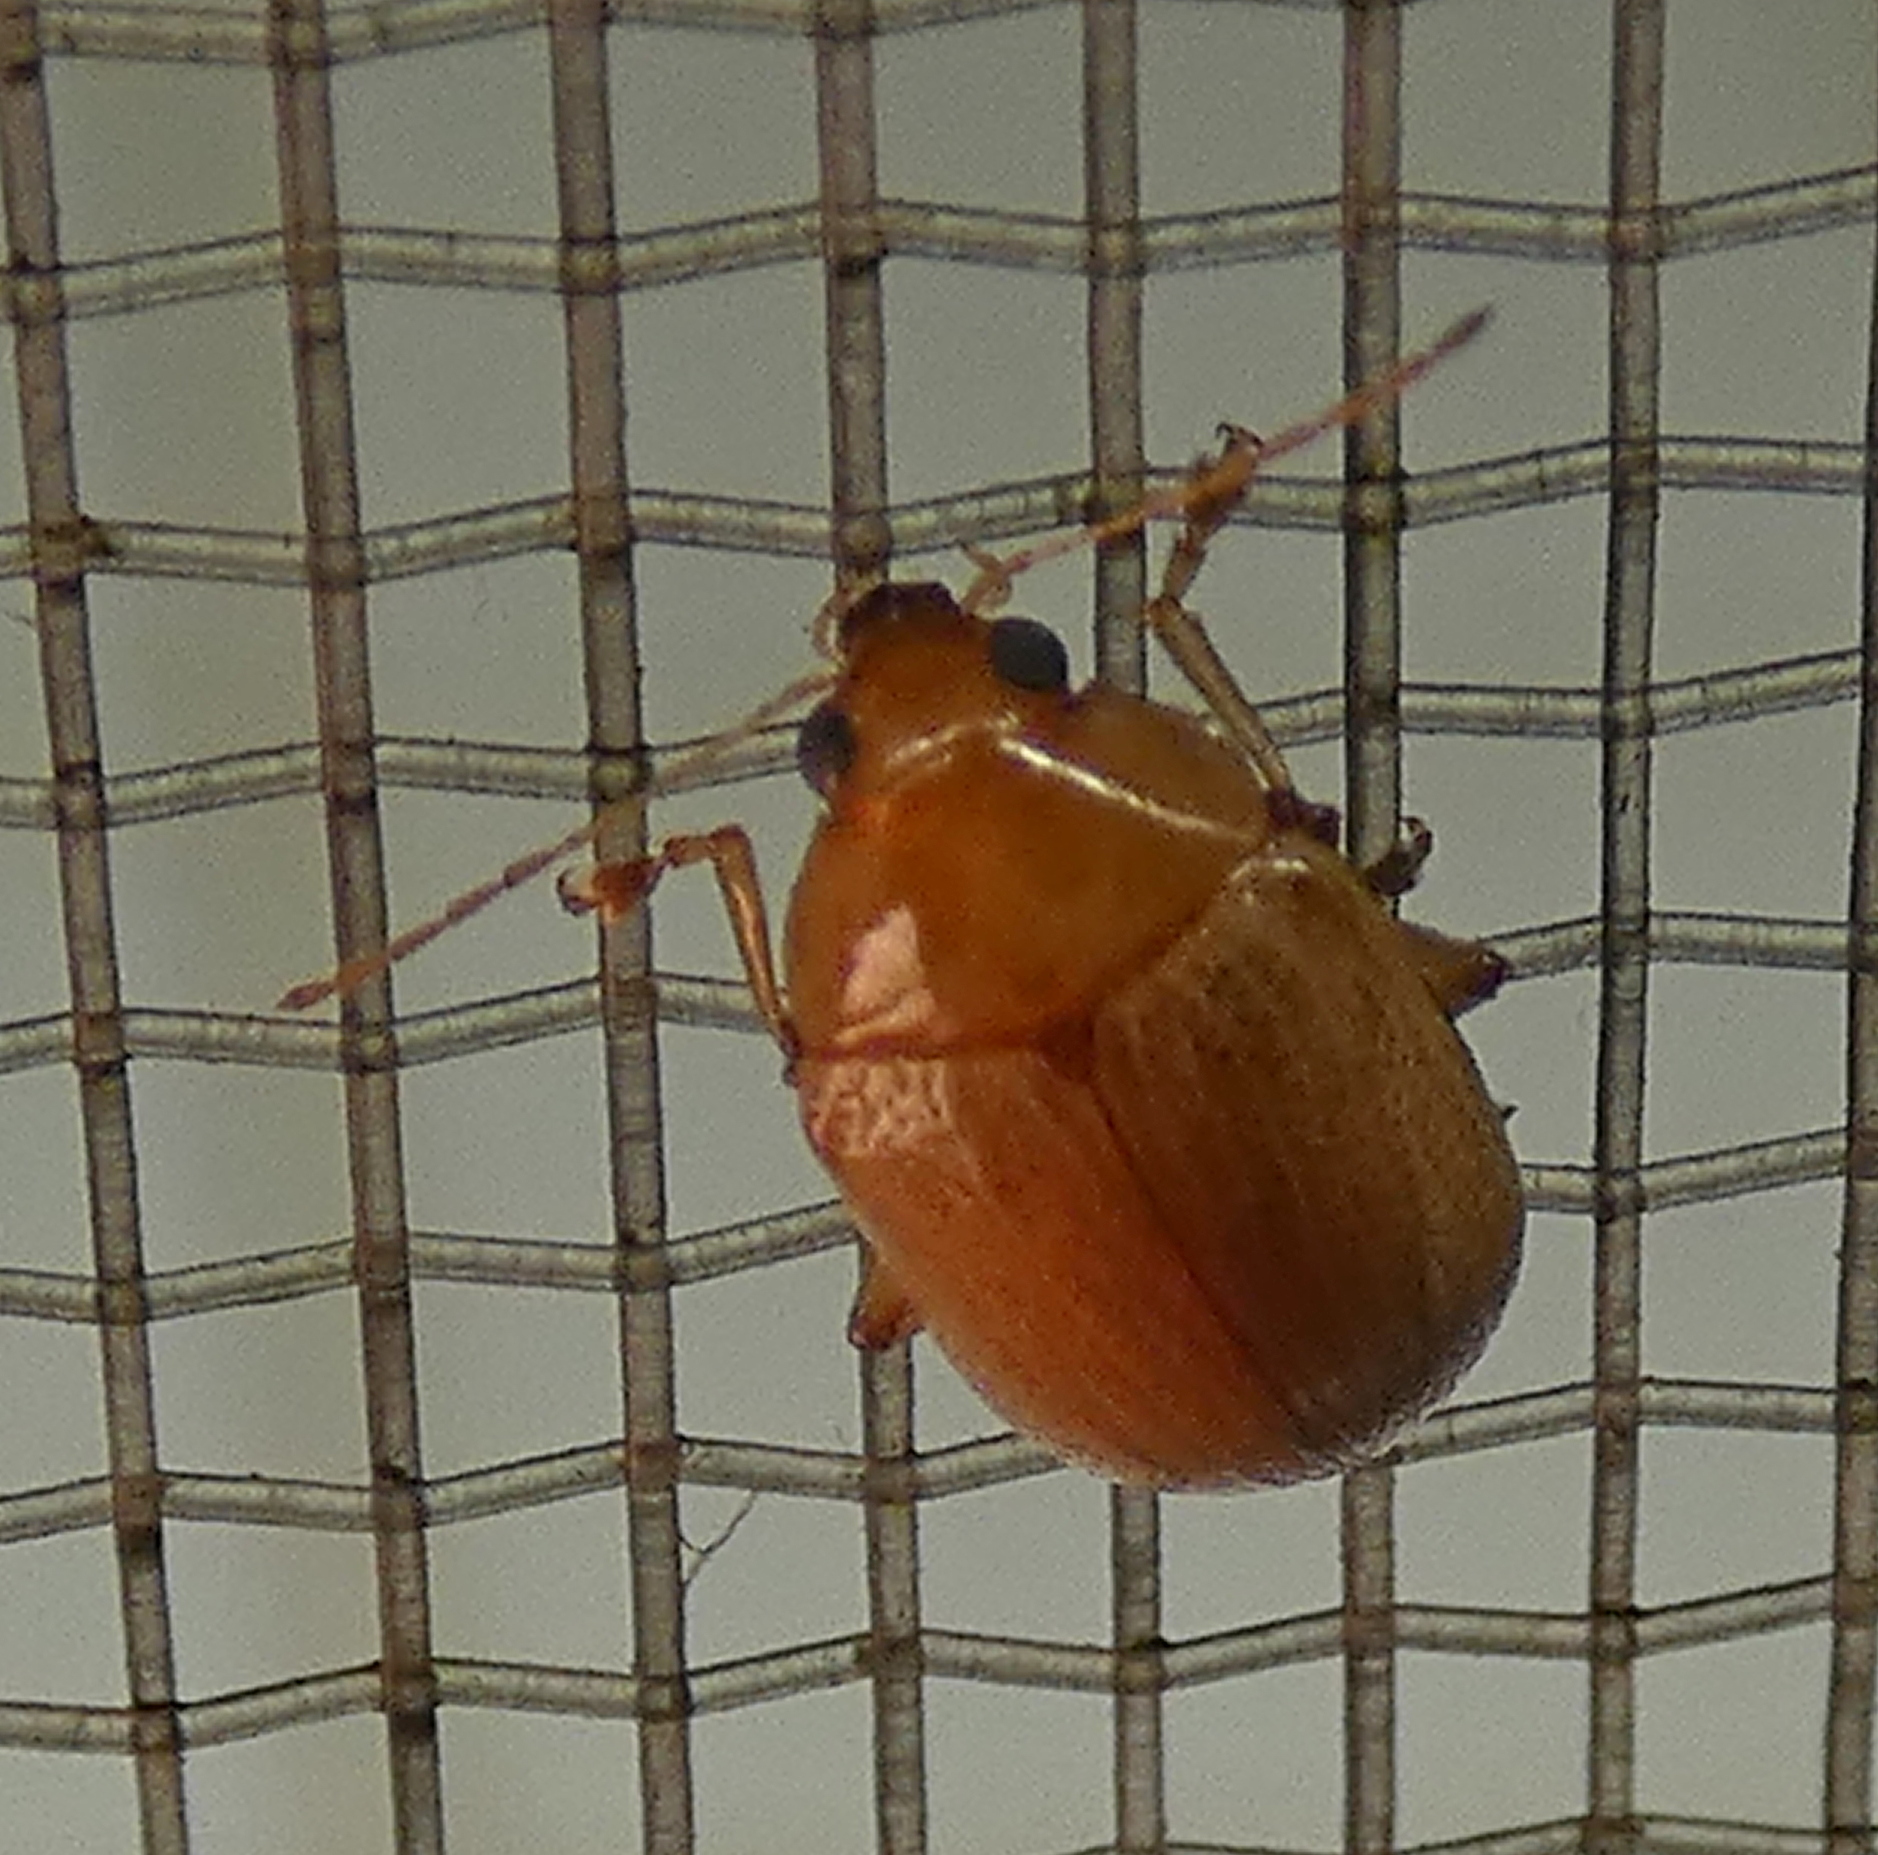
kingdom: Animalia
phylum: Arthropoda
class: Insecta
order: Coleoptera
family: Chrysomelidae
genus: Anisodera
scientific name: Anisodera ferruginea
